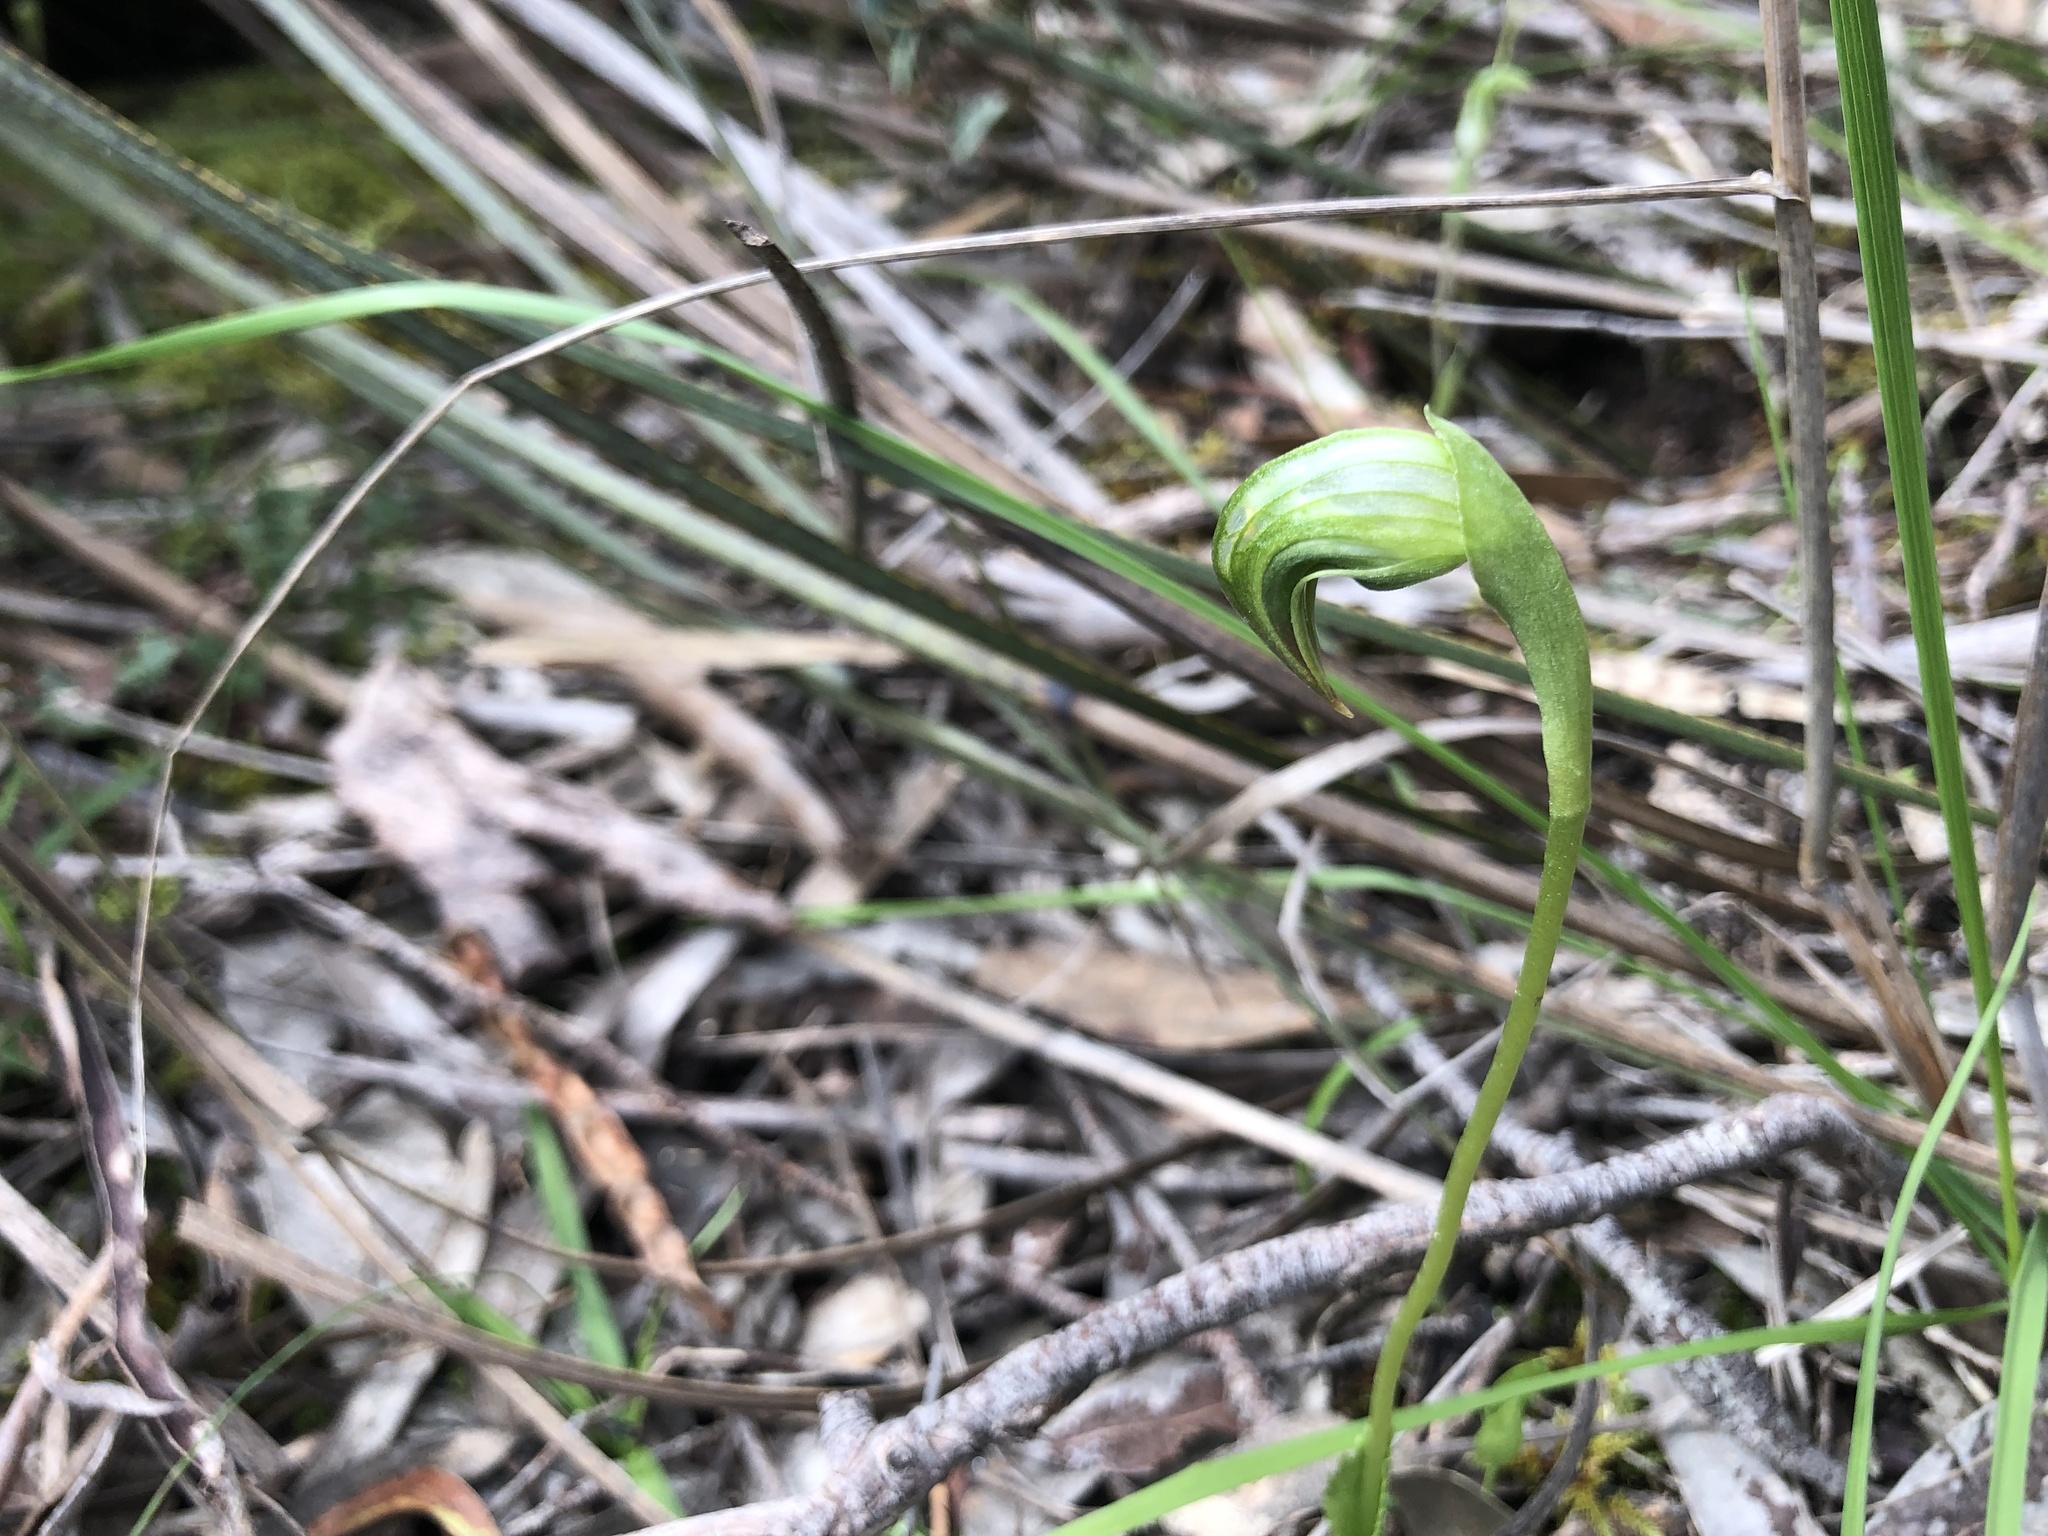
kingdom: Plantae
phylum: Tracheophyta
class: Liliopsida
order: Asparagales
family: Orchidaceae
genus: Pterostylis
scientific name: Pterostylis nutans
